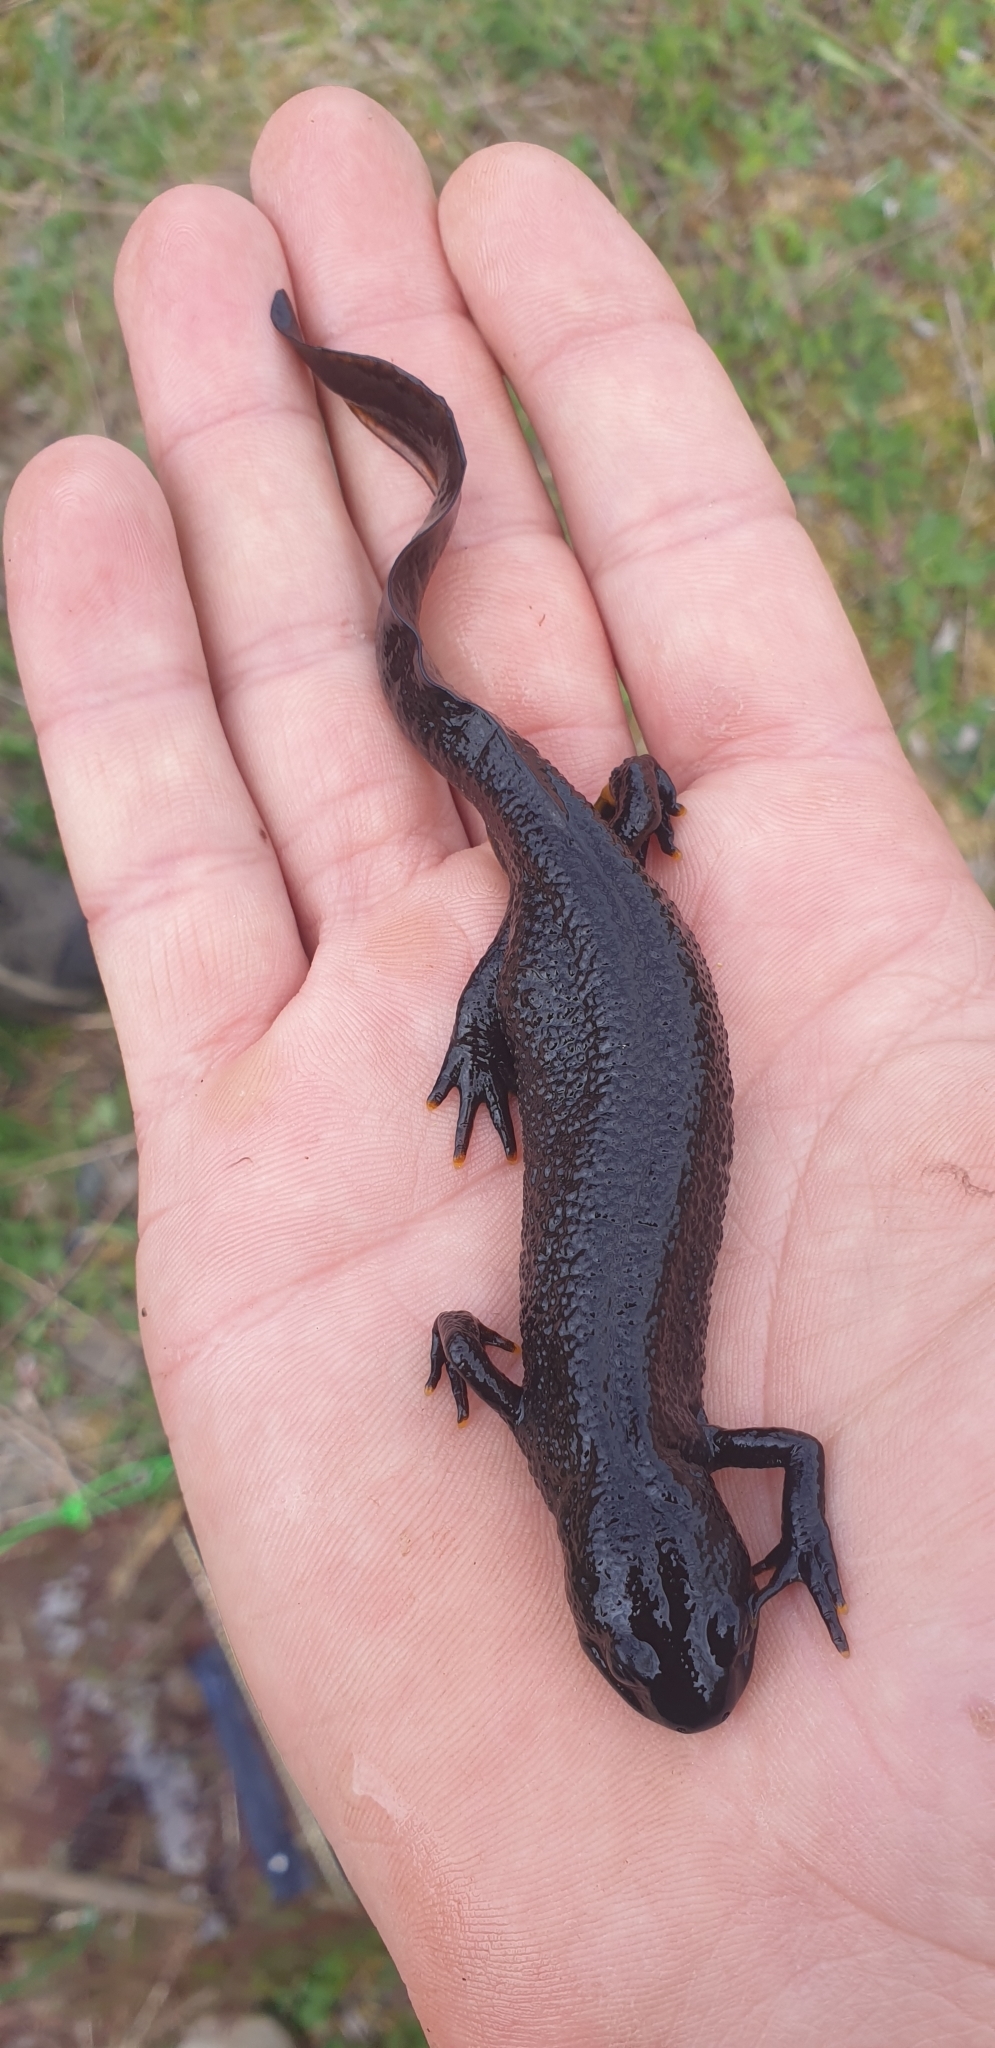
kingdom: Animalia
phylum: Chordata
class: Amphibia
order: Caudata
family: Salamandridae
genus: Triturus
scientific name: Triturus cristatus
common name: Crested newt
